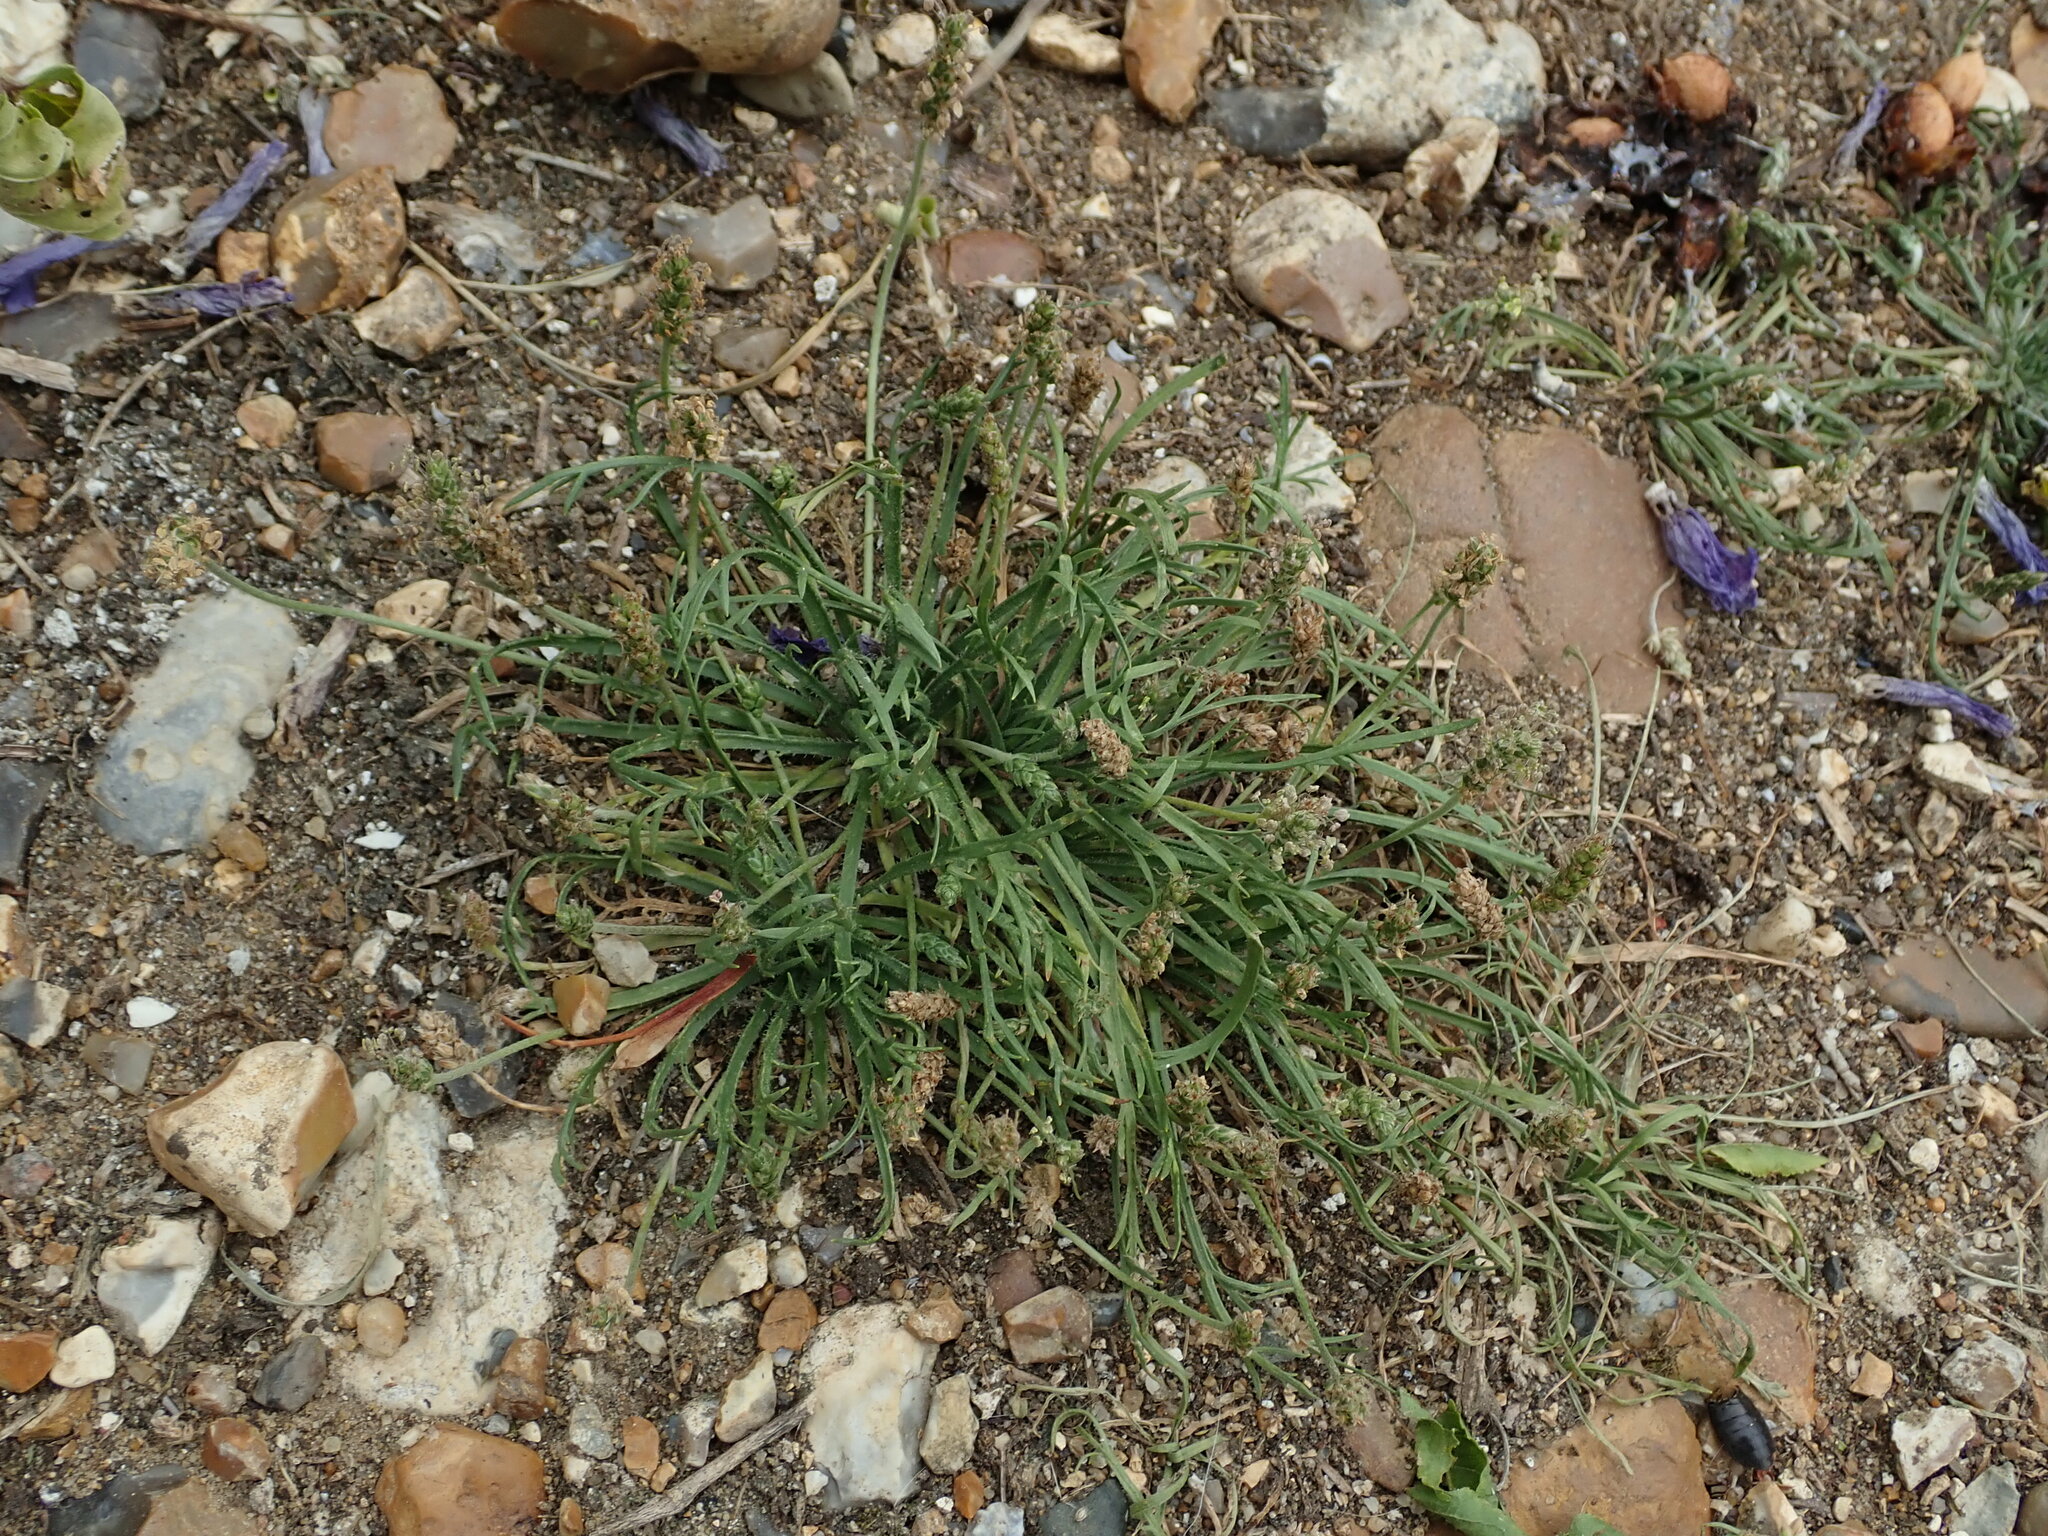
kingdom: Plantae
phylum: Tracheophyta
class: Magnoliopsida
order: Lamiales
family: Plantaginaceae
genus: Plantago
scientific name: Plantago coronopus
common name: Buck's-horn plantain
